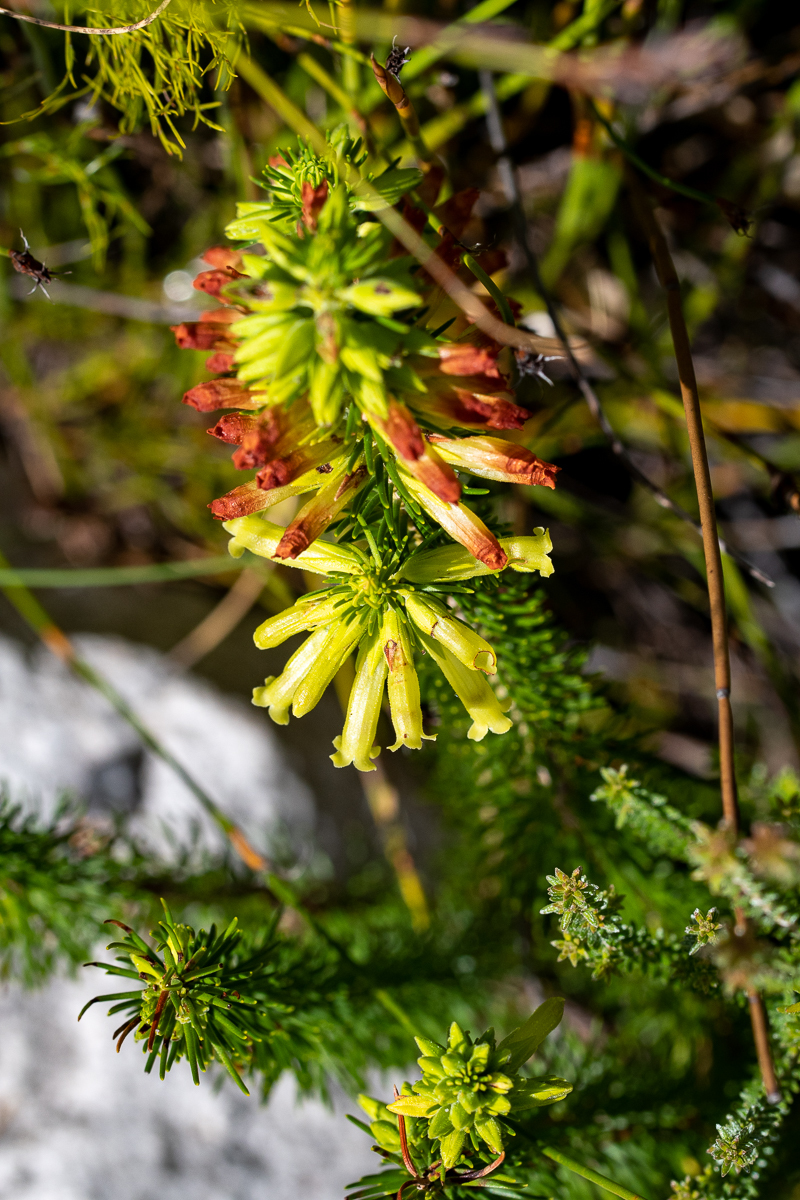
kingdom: Plantae
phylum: Tracheophyta
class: Magnoliopsida
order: Ericales
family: Ericaceae
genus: Erica
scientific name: Erica viscaria
